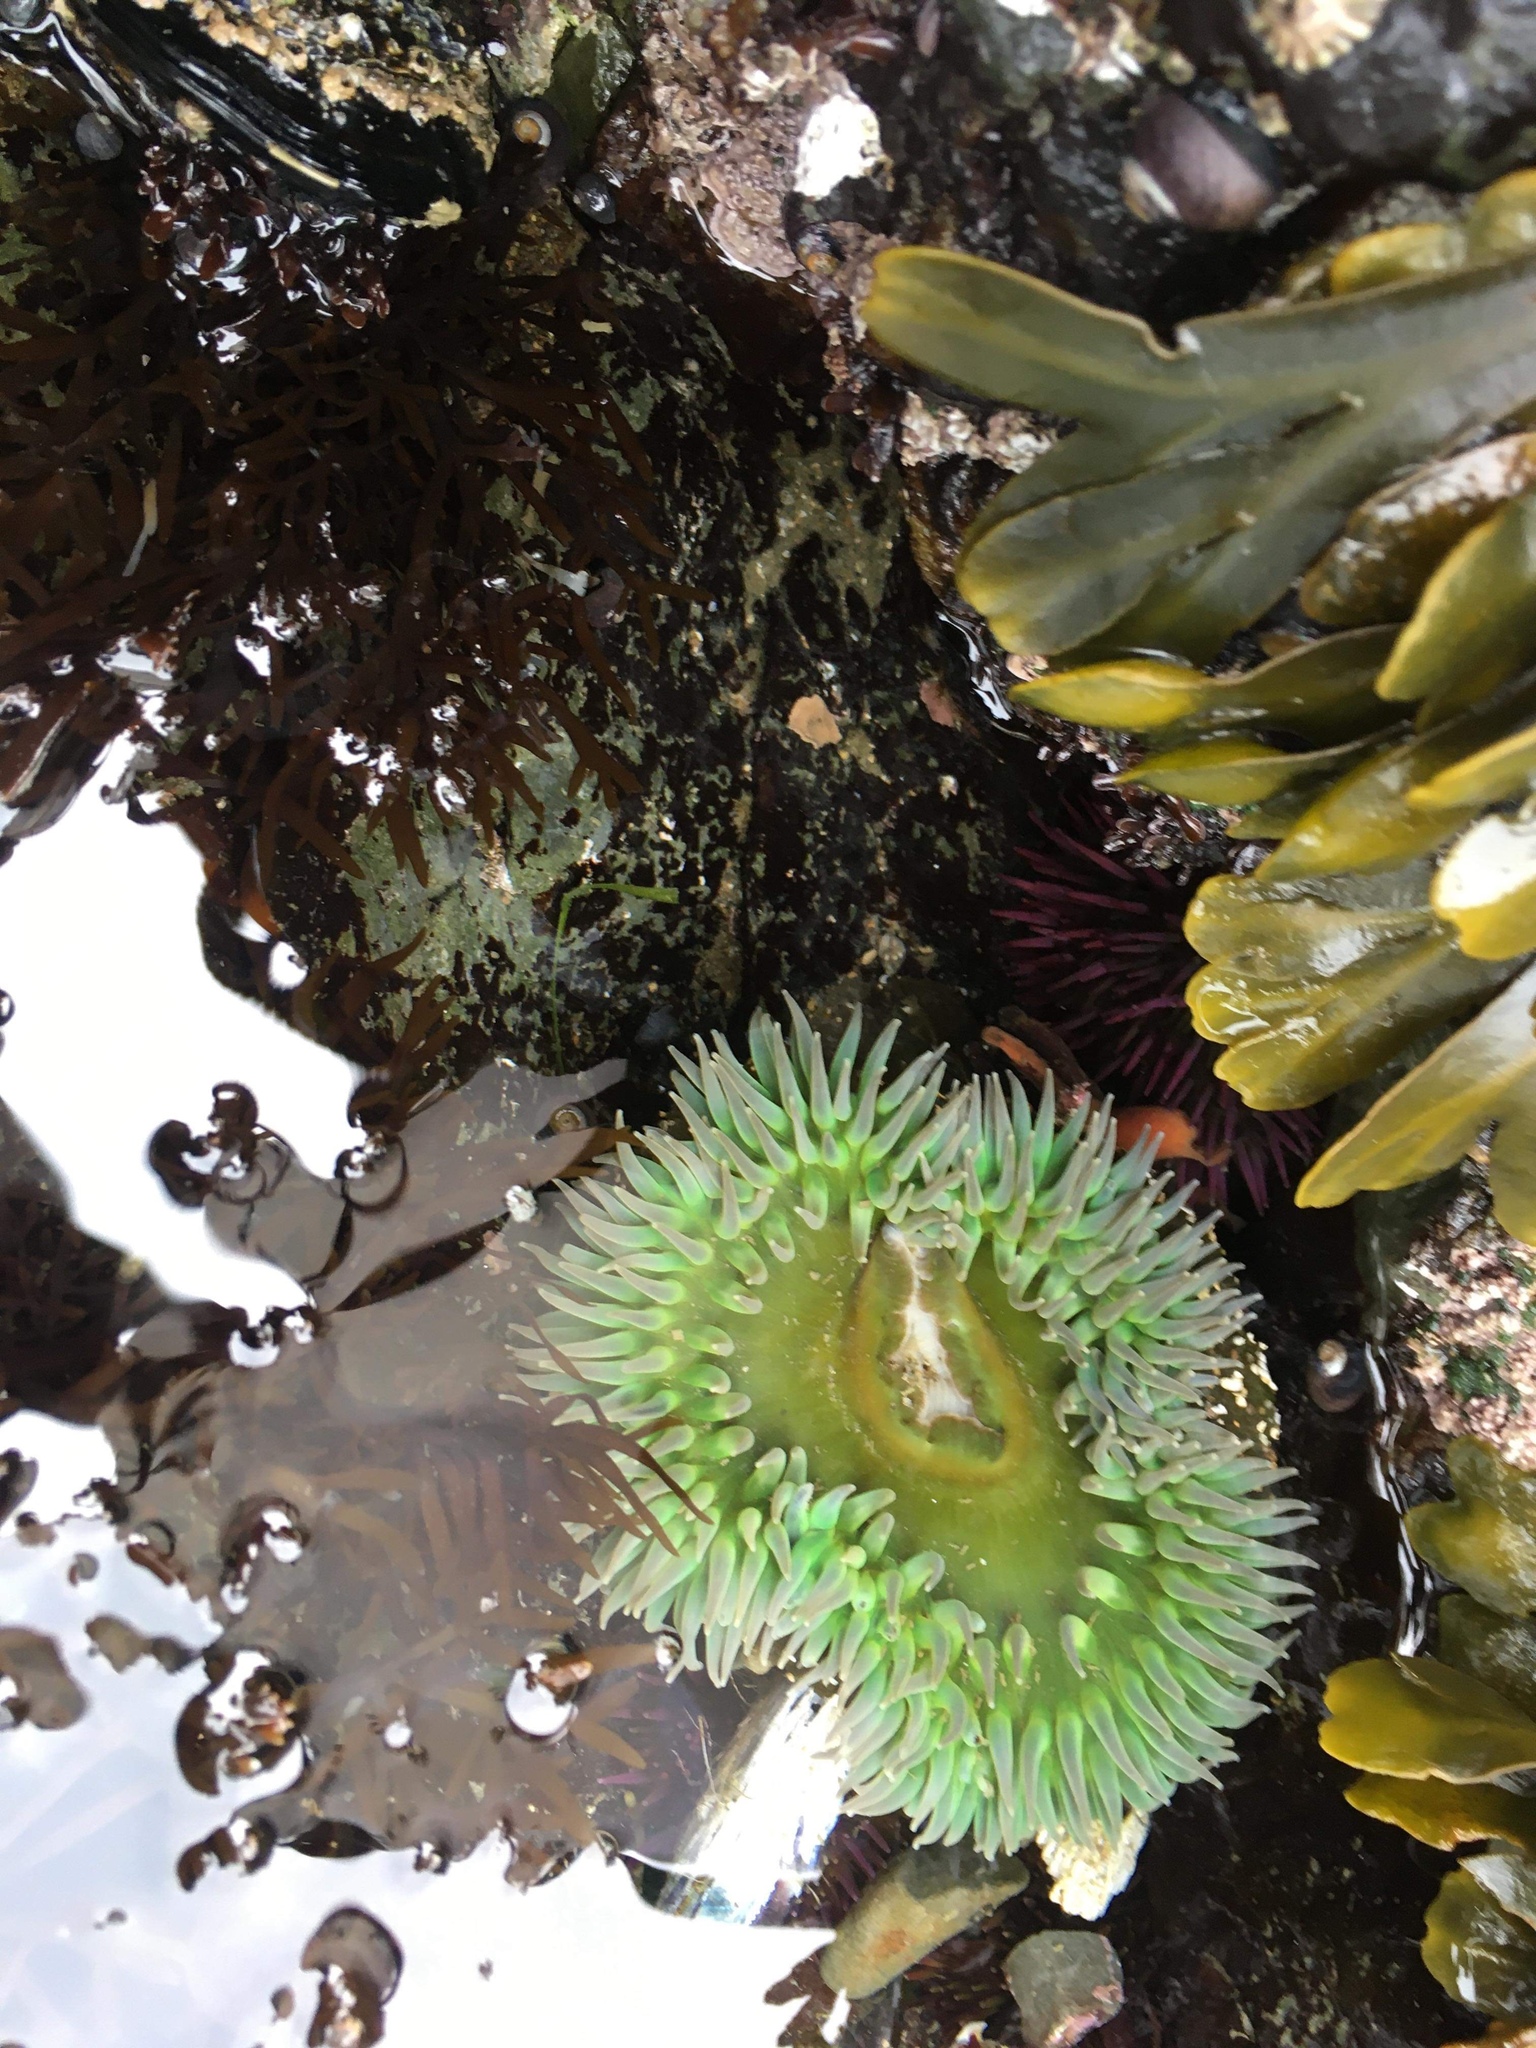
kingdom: Animalia
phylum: Cnidaria
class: Anthozoa
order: Actiniaria
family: Actiniidae
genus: Anthopleura
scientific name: Anthopleura xanthogrammica
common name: Giant green anemone
